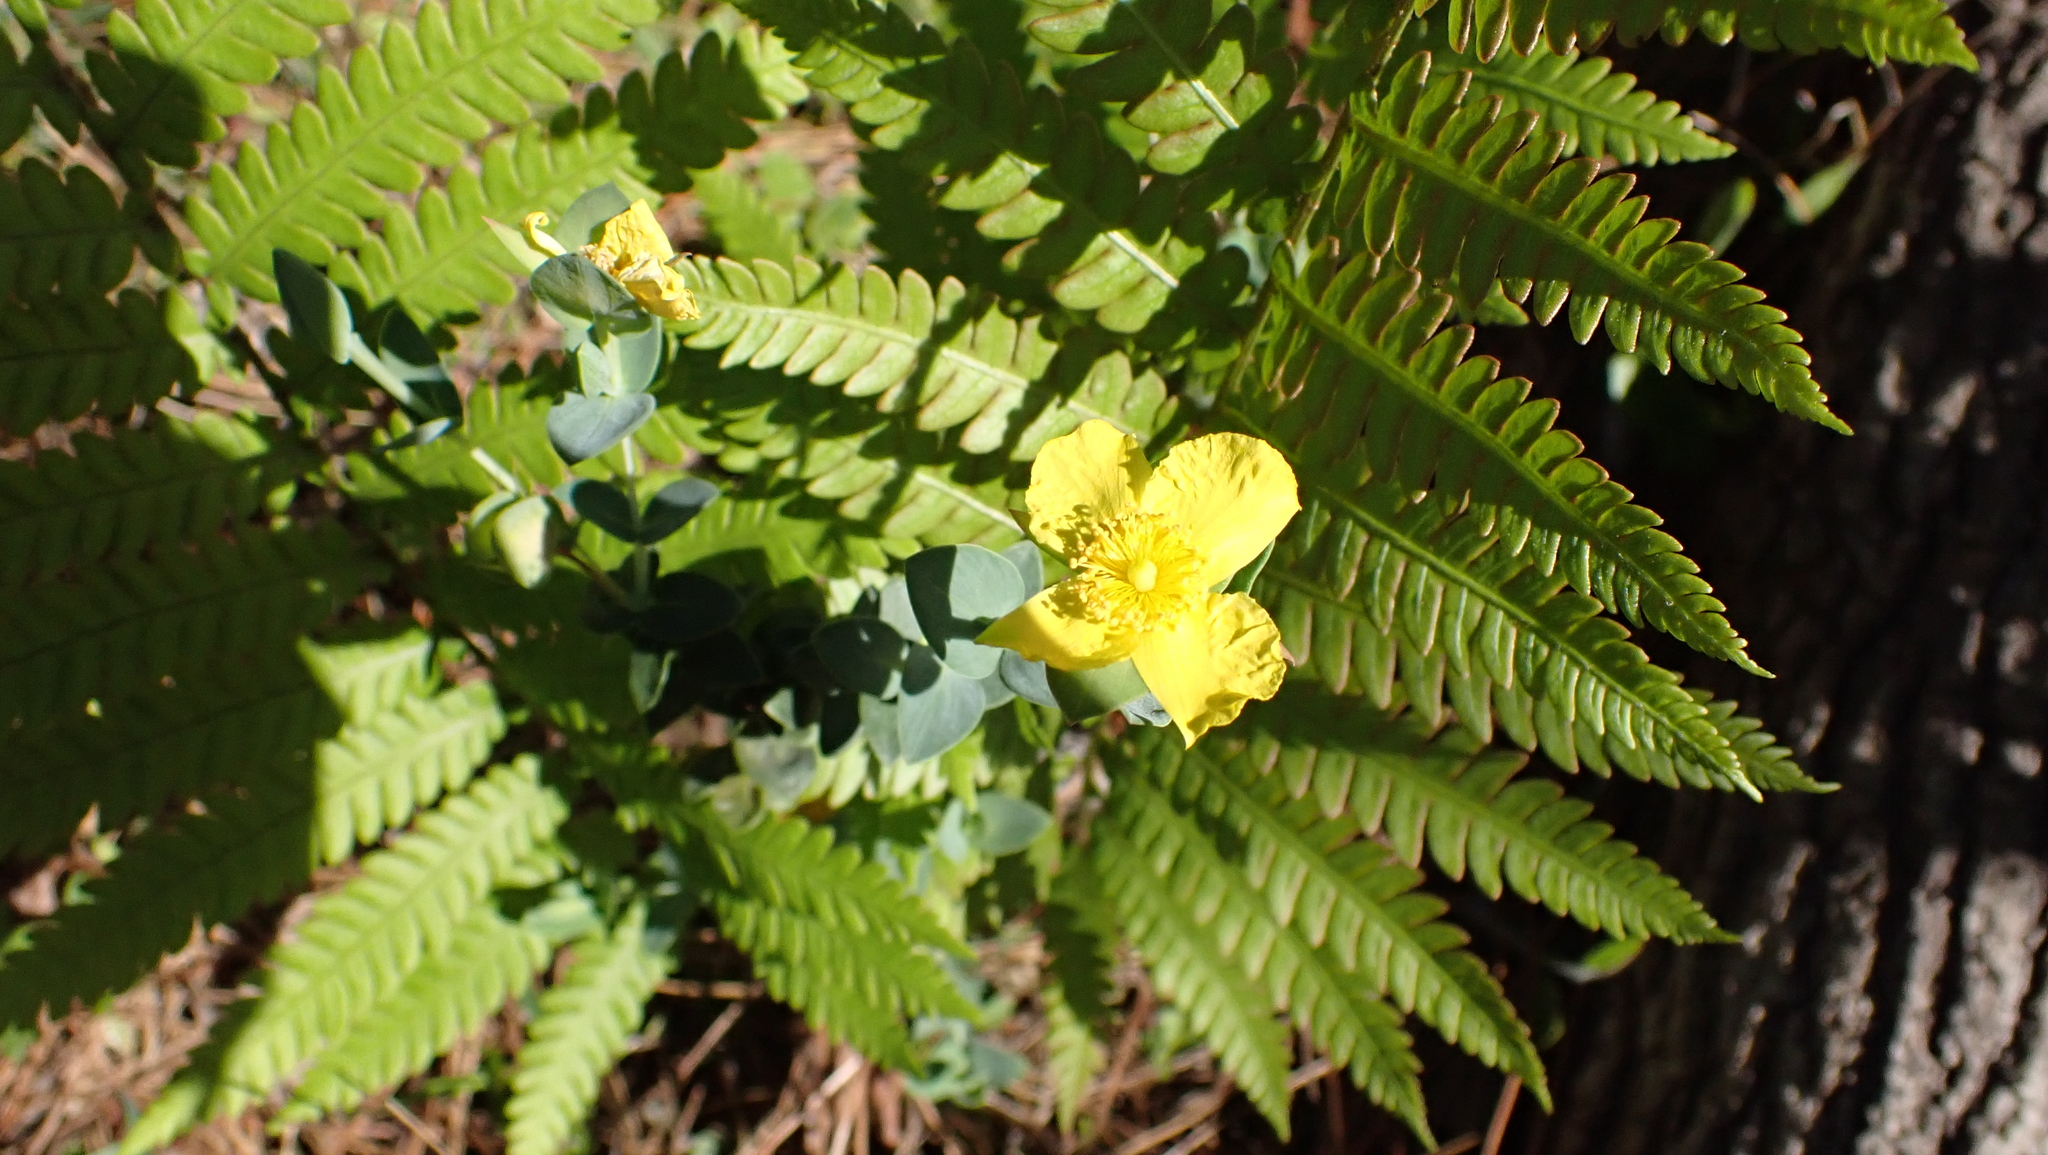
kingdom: Plantae
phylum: Tracheophyta
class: Magnoliopsida
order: Malpighiales
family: Hypericaceae
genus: Hypericum
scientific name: Hypericum tetrapetalum
